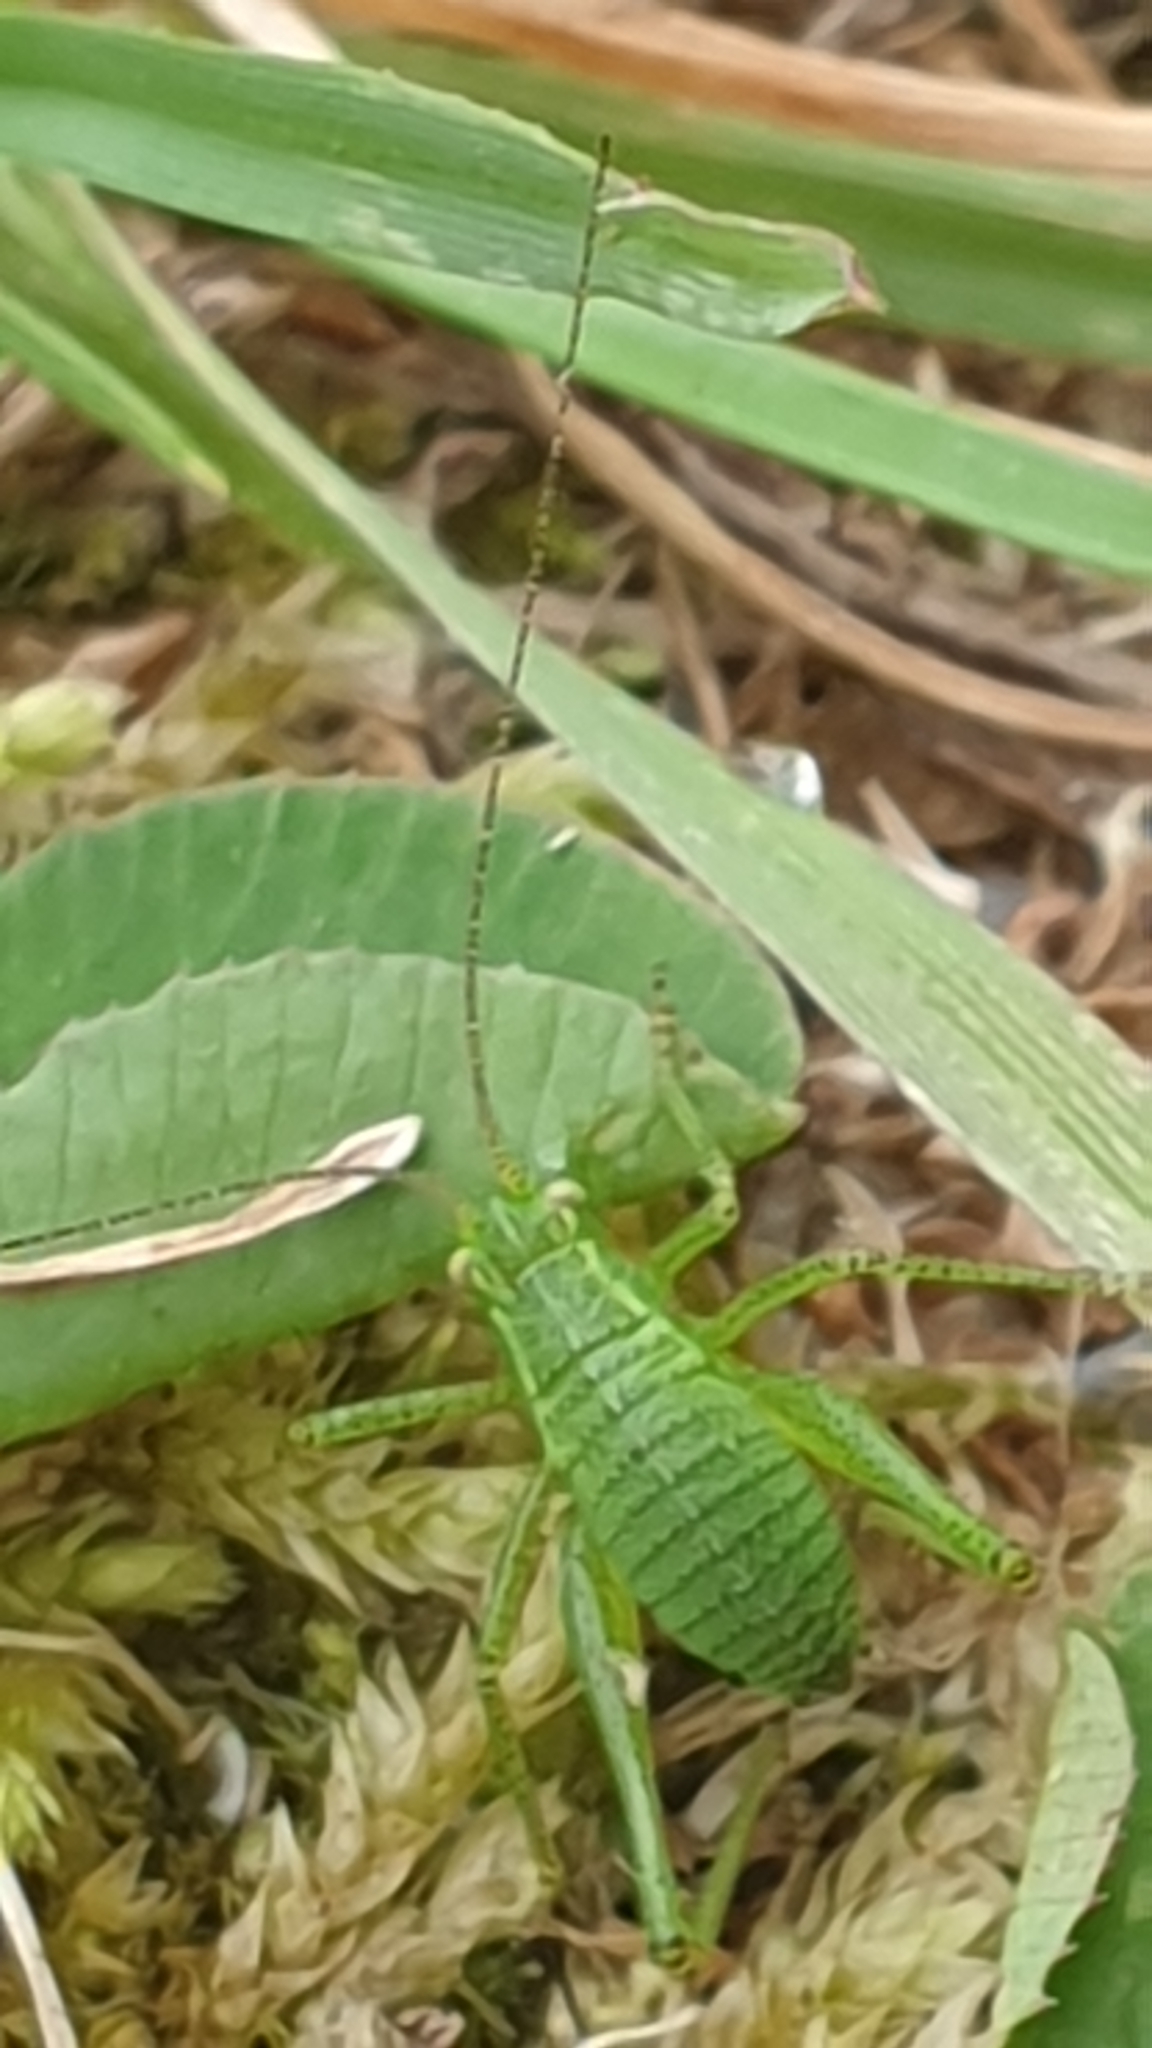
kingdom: Animalia
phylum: Arthropoda
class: Insecta
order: Orthoptera
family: Tettigoniidae
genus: Leptophyes
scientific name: Leptophyes punctatissima
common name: Speckled bush-cricket
